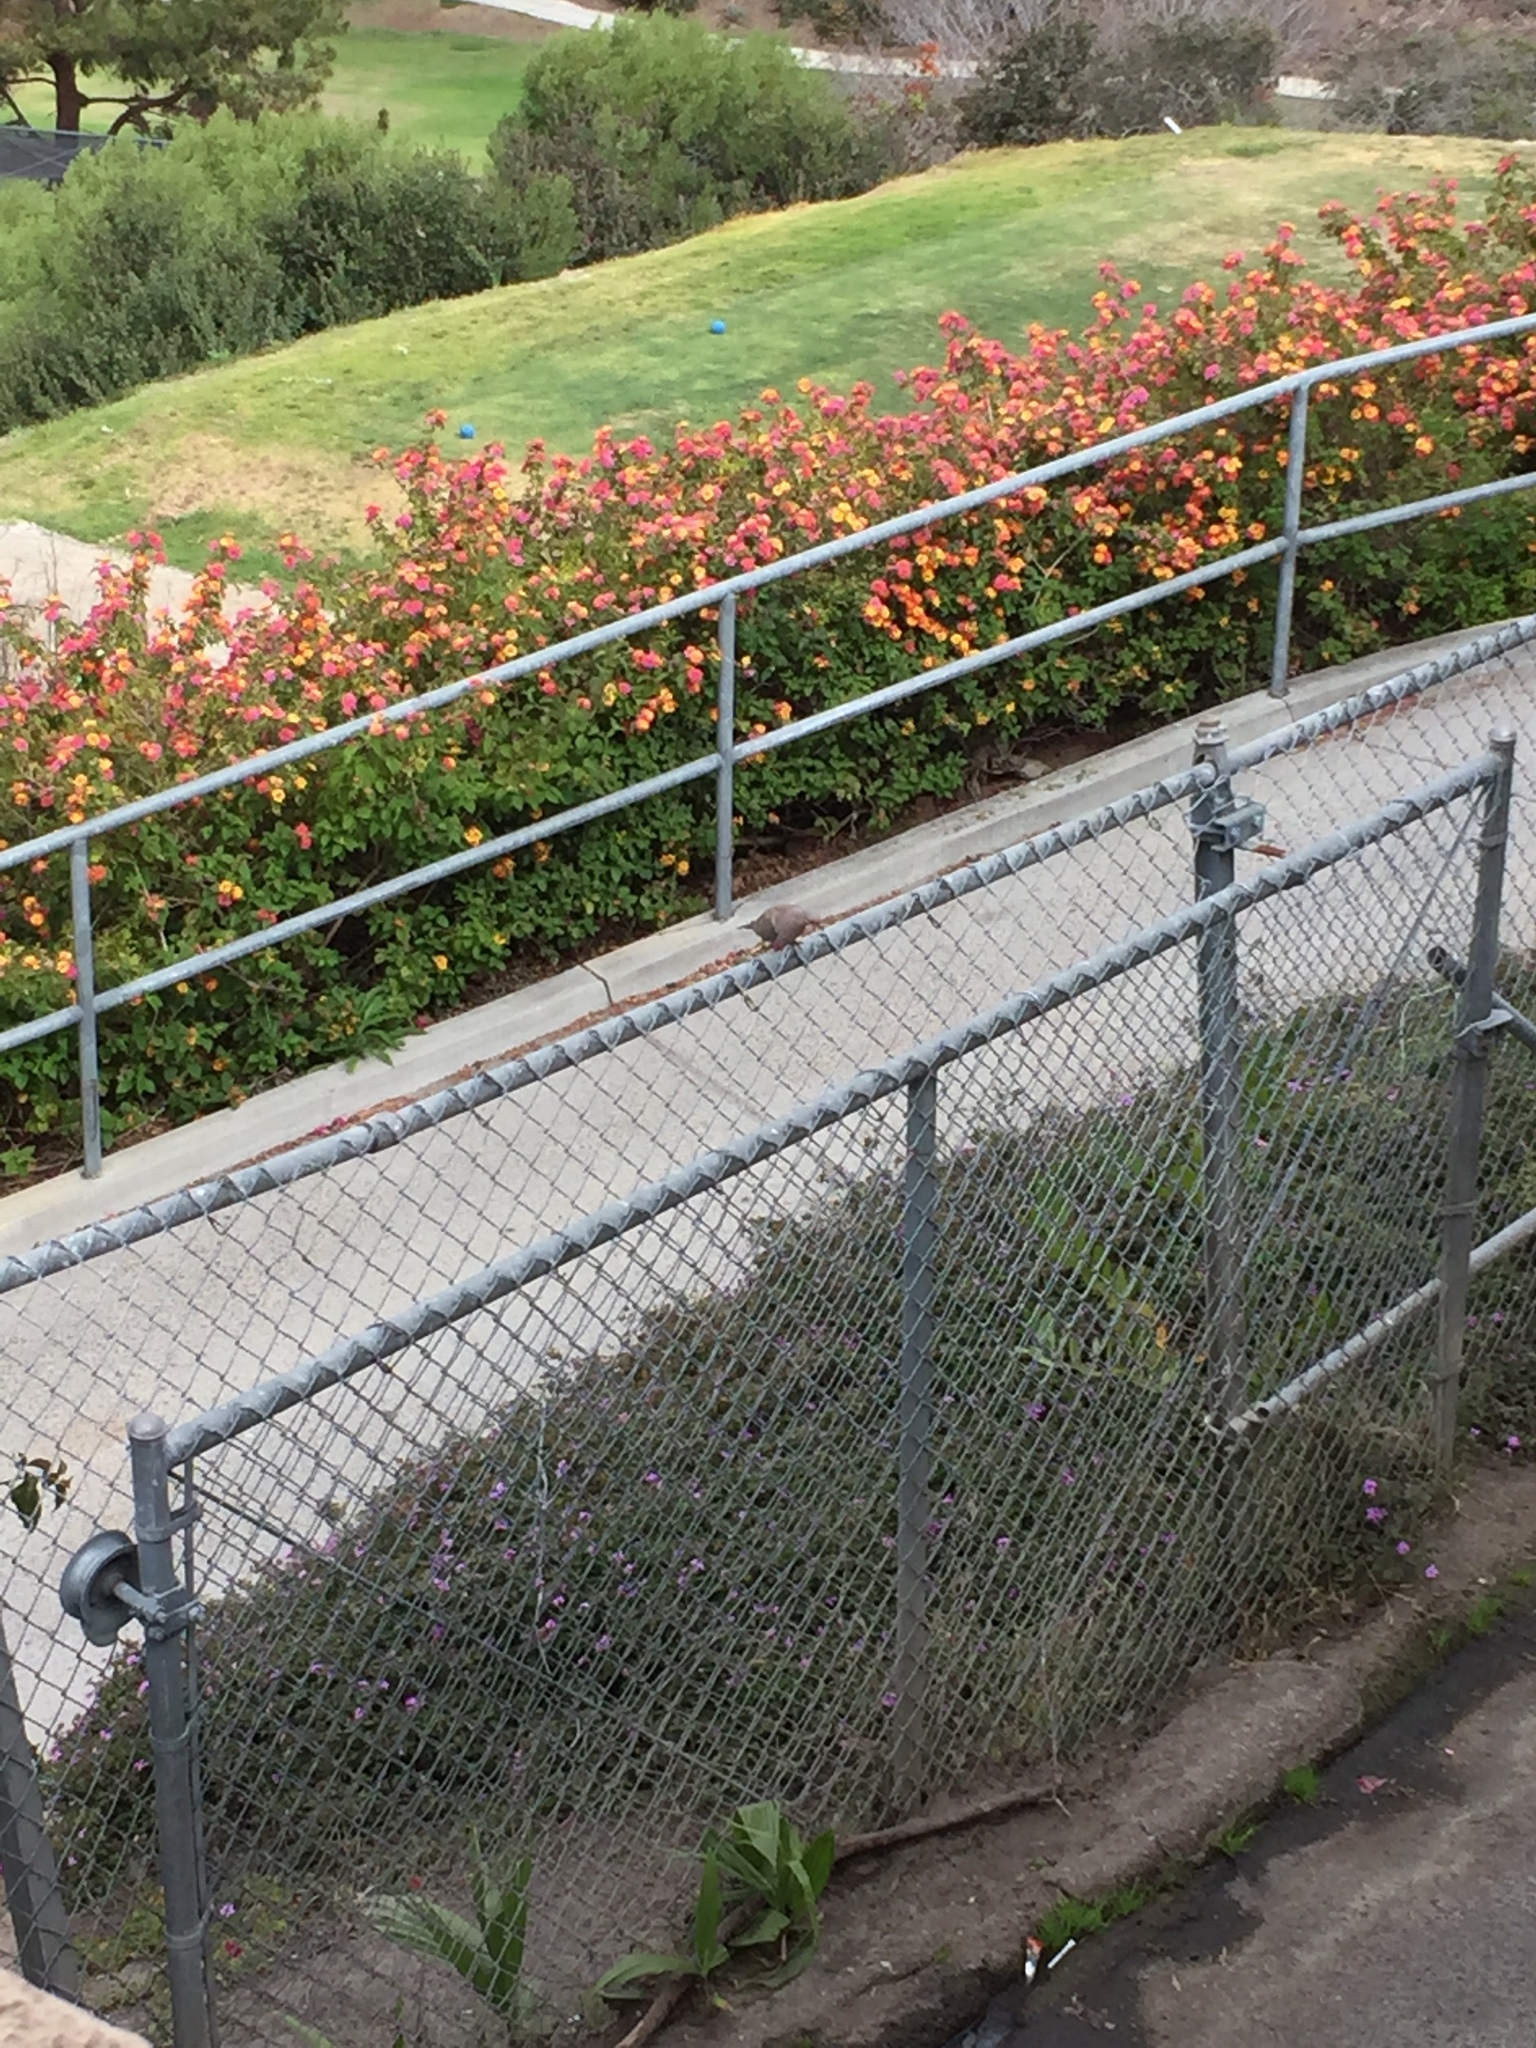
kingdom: Animalia
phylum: Chordata
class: Aves
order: Columbiformes
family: Columbidae
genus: Zenaida
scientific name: Zenaida macroura
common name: Mourning dove
